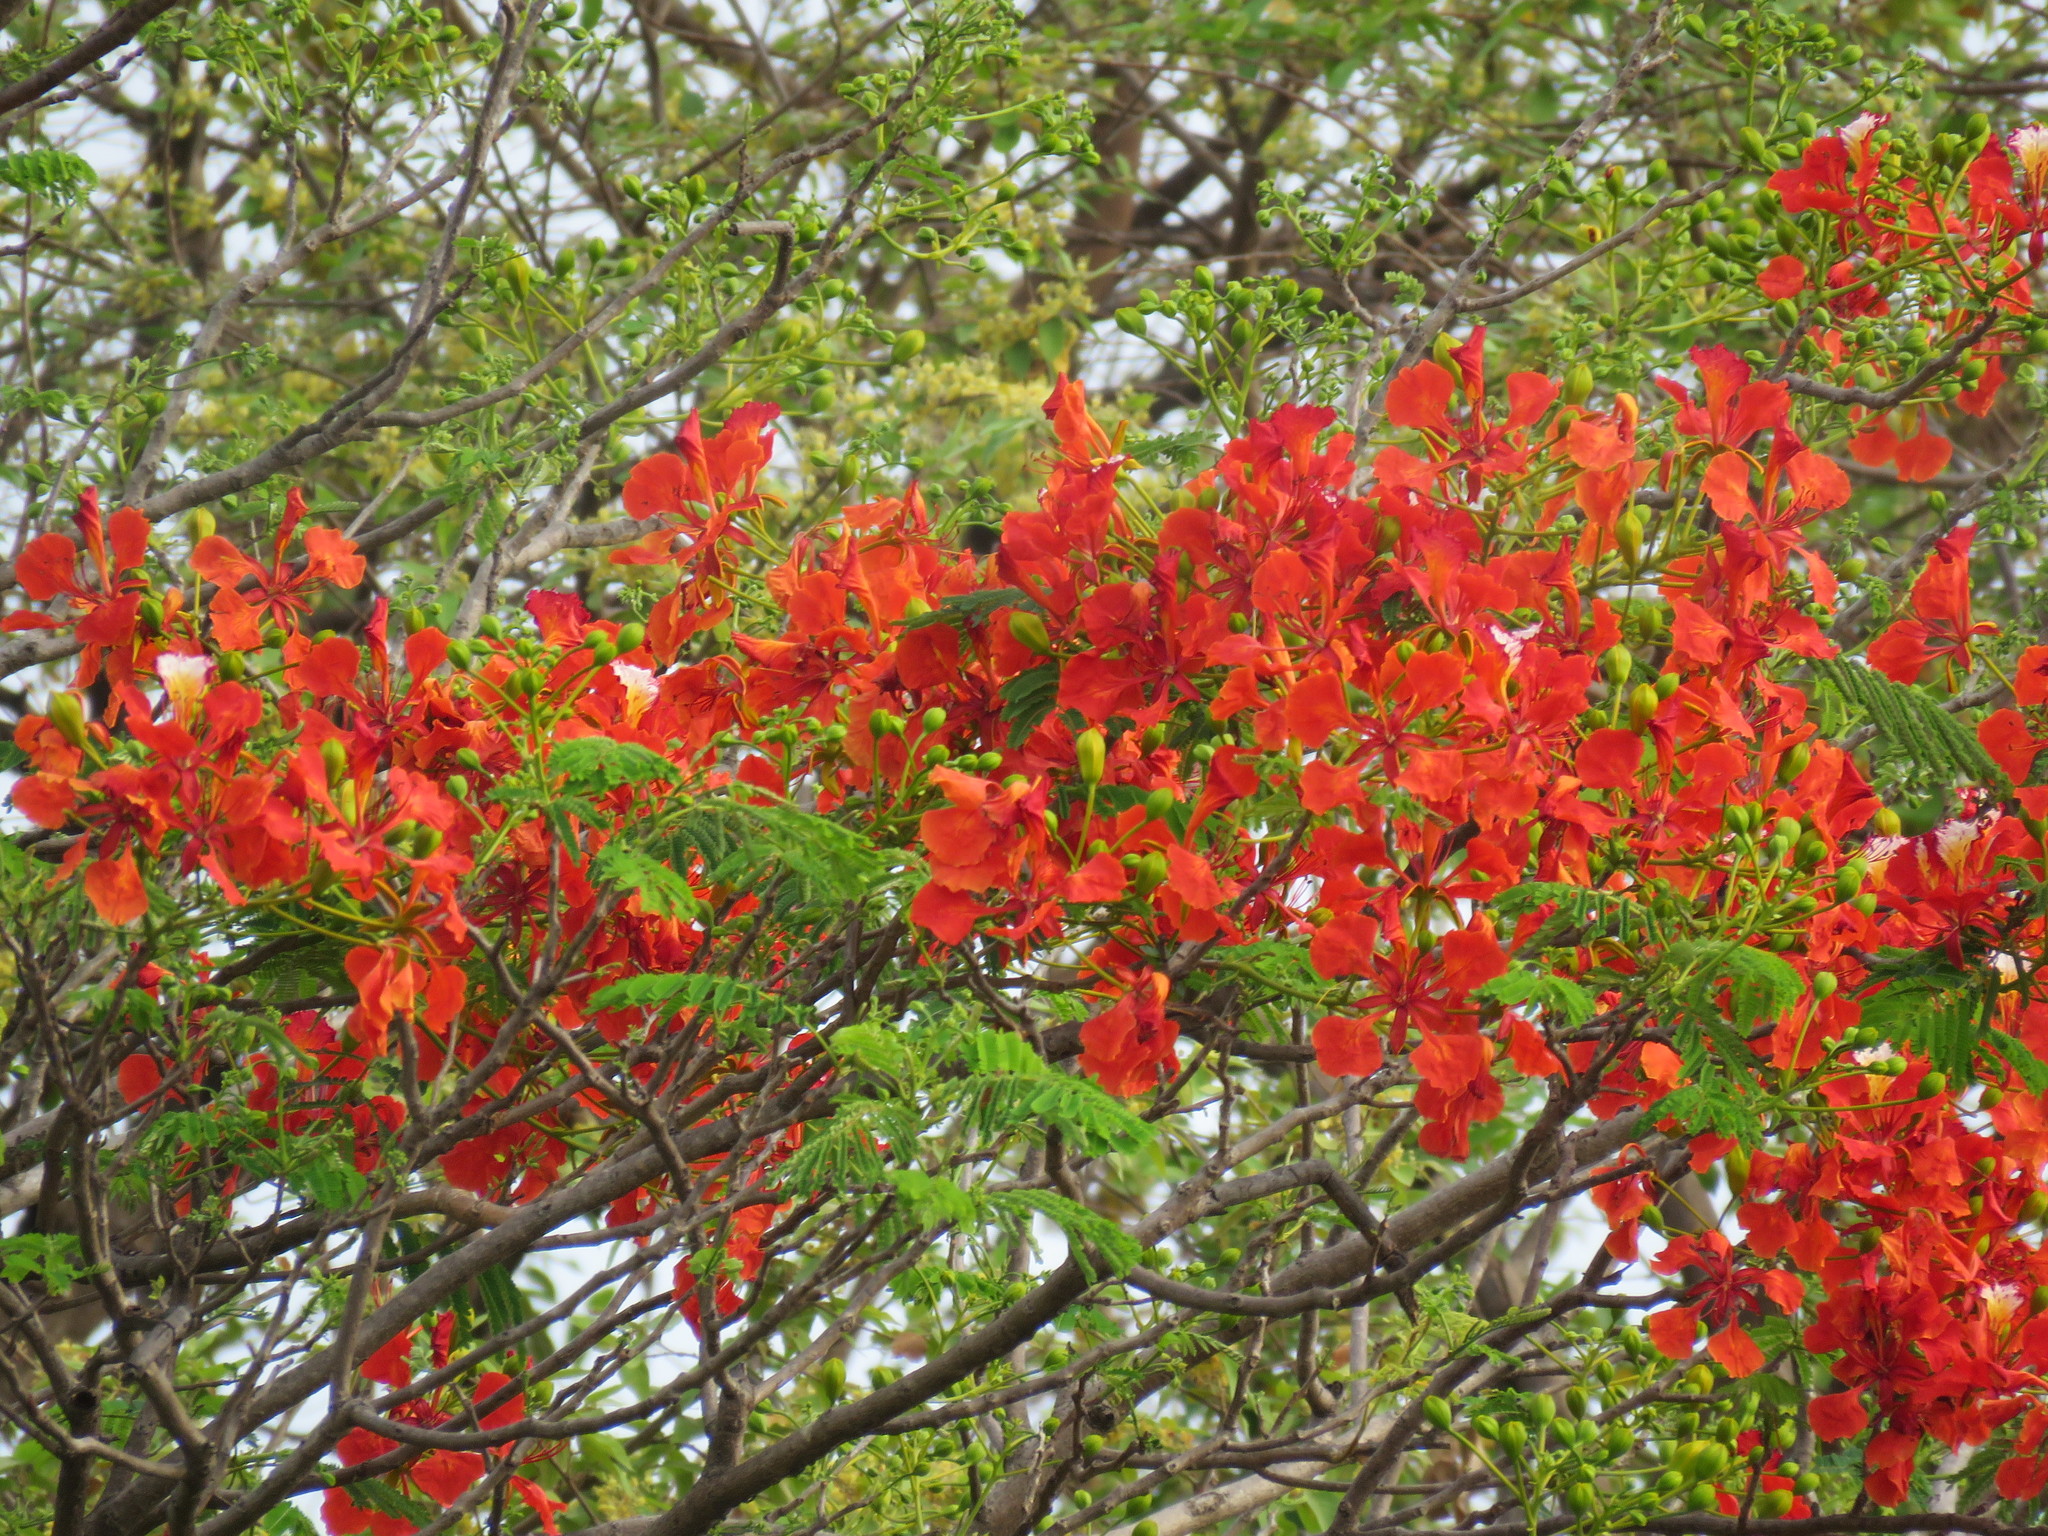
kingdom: Plantae
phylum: Tracheophyta
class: Magnoliopsida
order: Fabales
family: Fabaceae
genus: Delonix
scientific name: Delonix regia
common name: Royal poinciana
